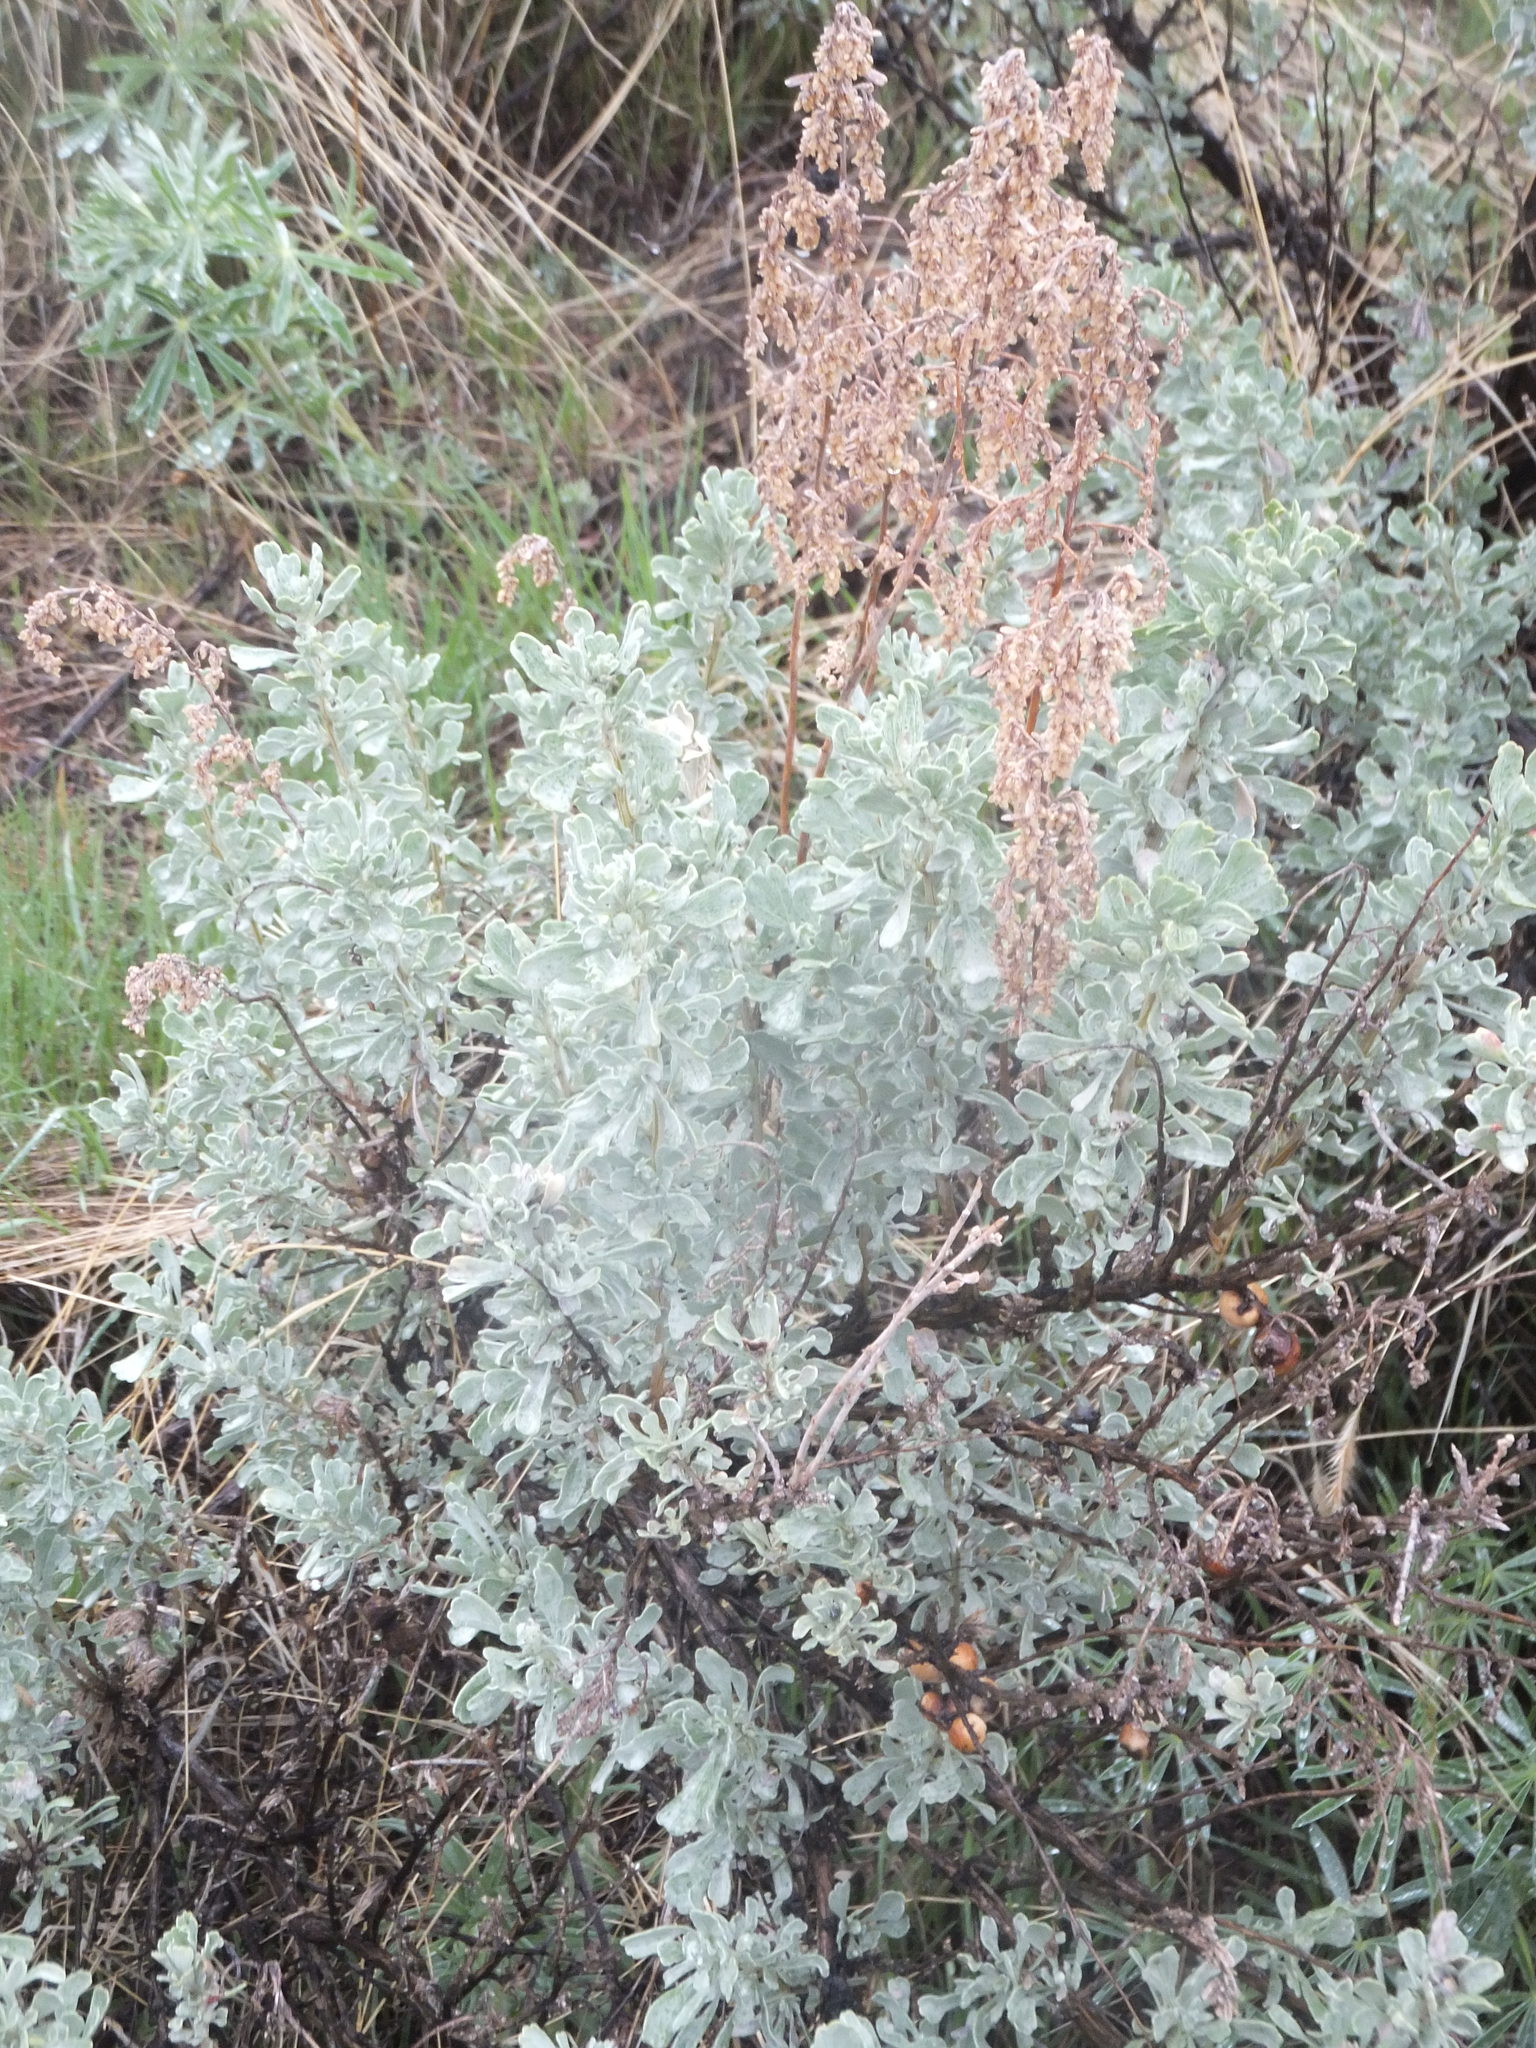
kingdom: Plantae
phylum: Tracheophyta
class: Magnoliopsida
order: Asterales
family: Asteraceae
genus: Artemisia
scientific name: Artemisia tridentata
